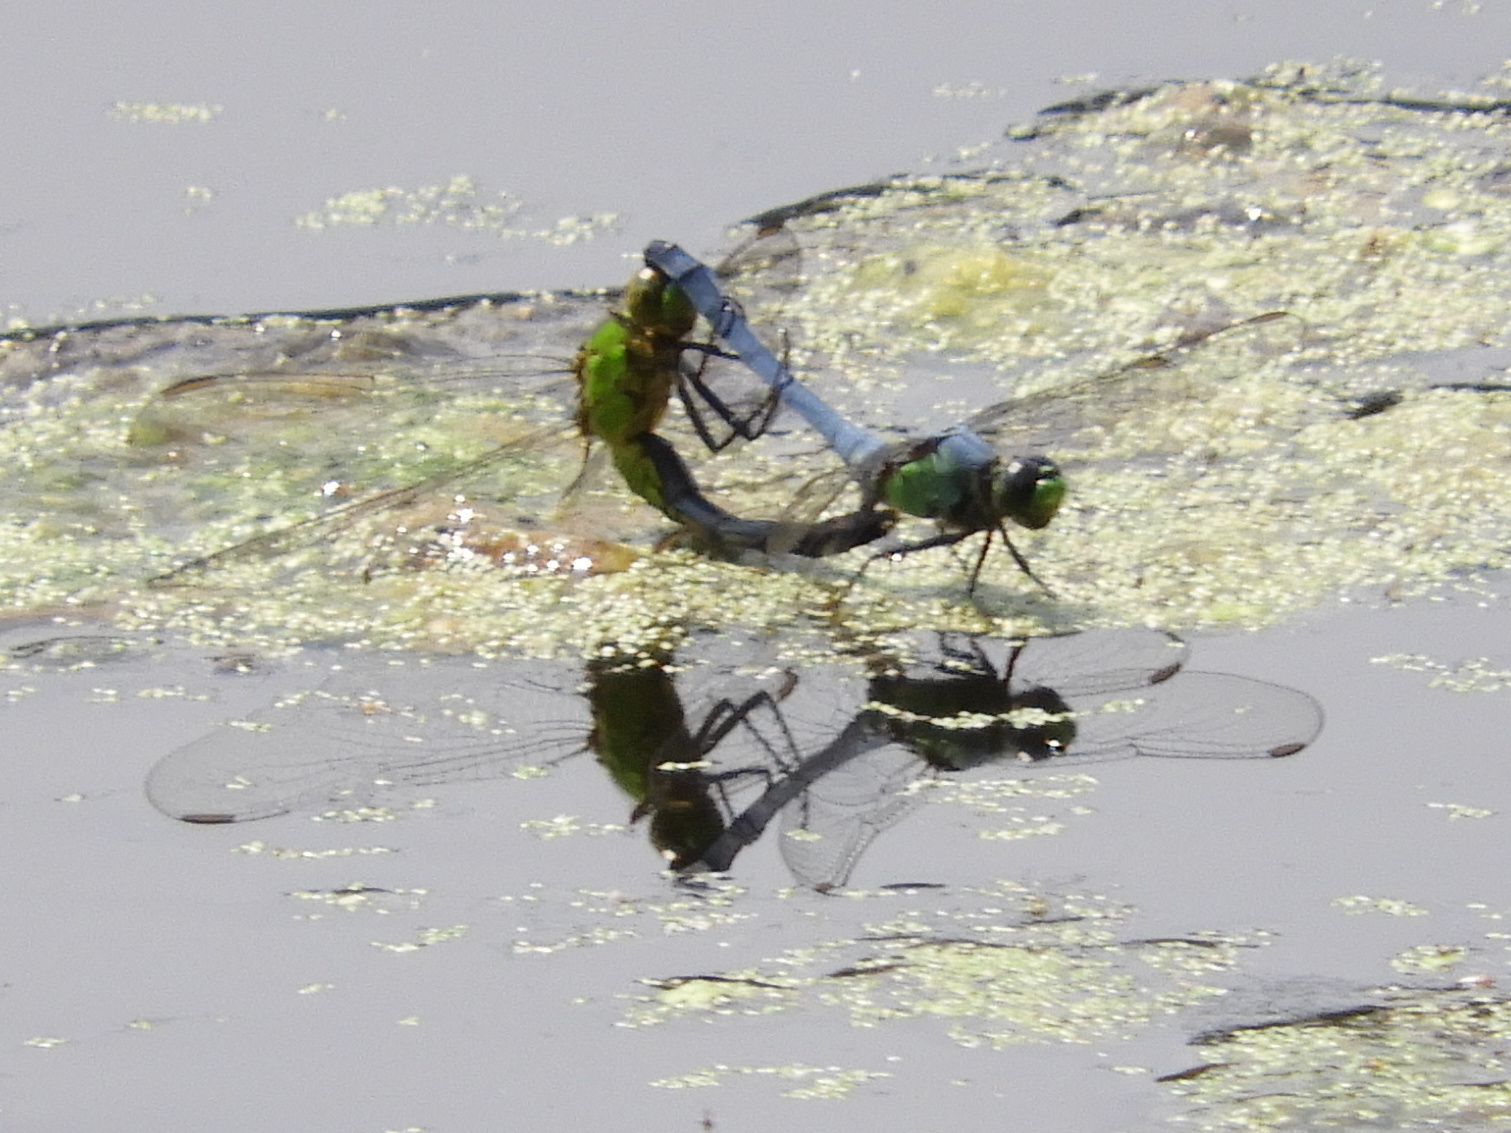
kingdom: Animalia
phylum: Arthropoda
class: Insecta
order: Odonata
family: Libellulidae
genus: Erythemis
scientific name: Erythemis simplicicollis
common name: Eastern pondhawk
